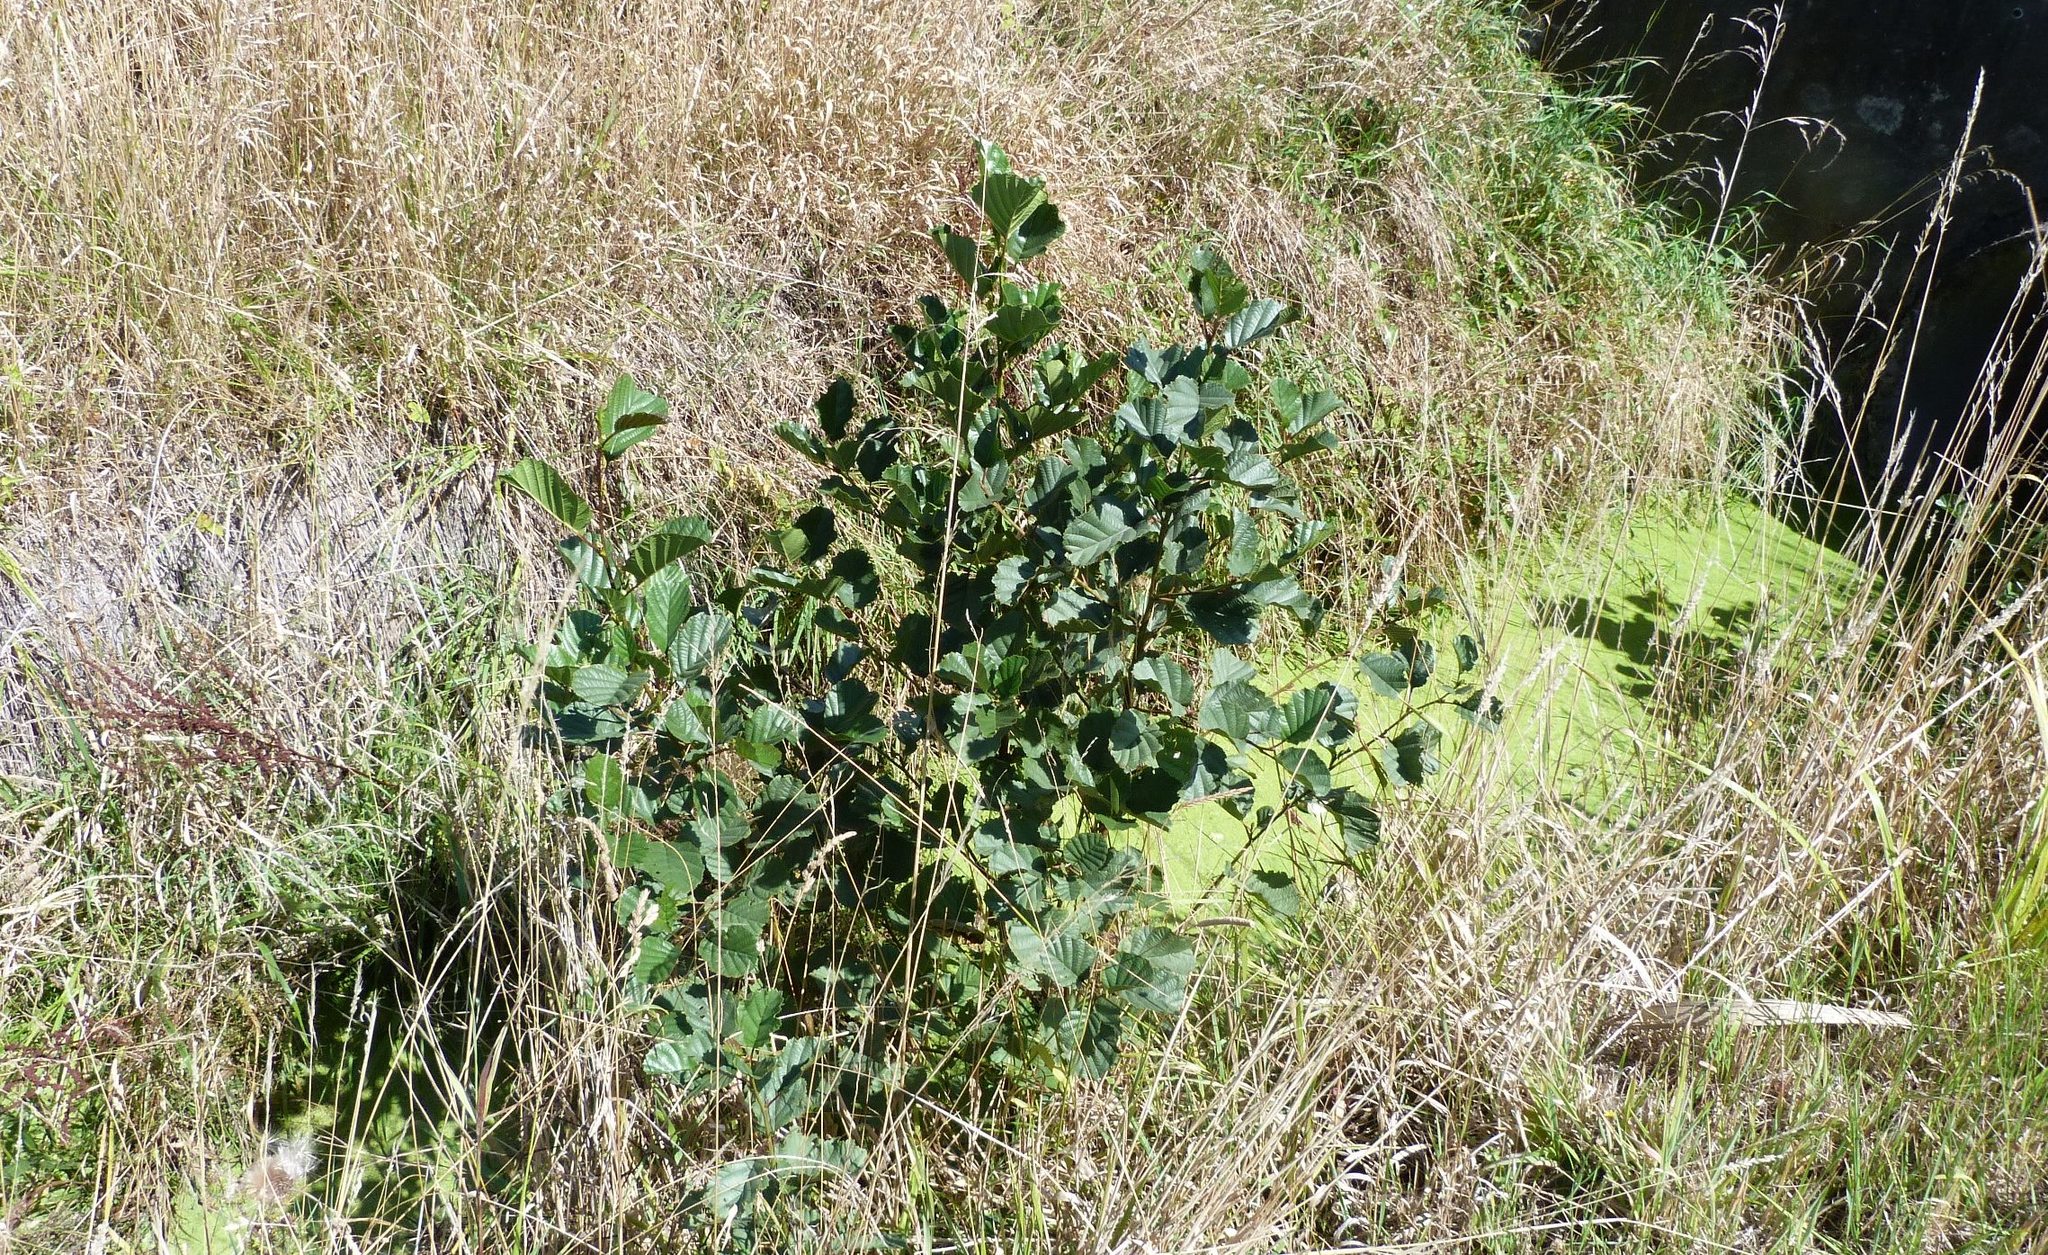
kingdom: Plantae
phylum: Tracheophyta
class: Magnoliopsida
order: Fagales
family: Betulaceae
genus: Alnus
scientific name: Alnus glutinosa
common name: Black alder
